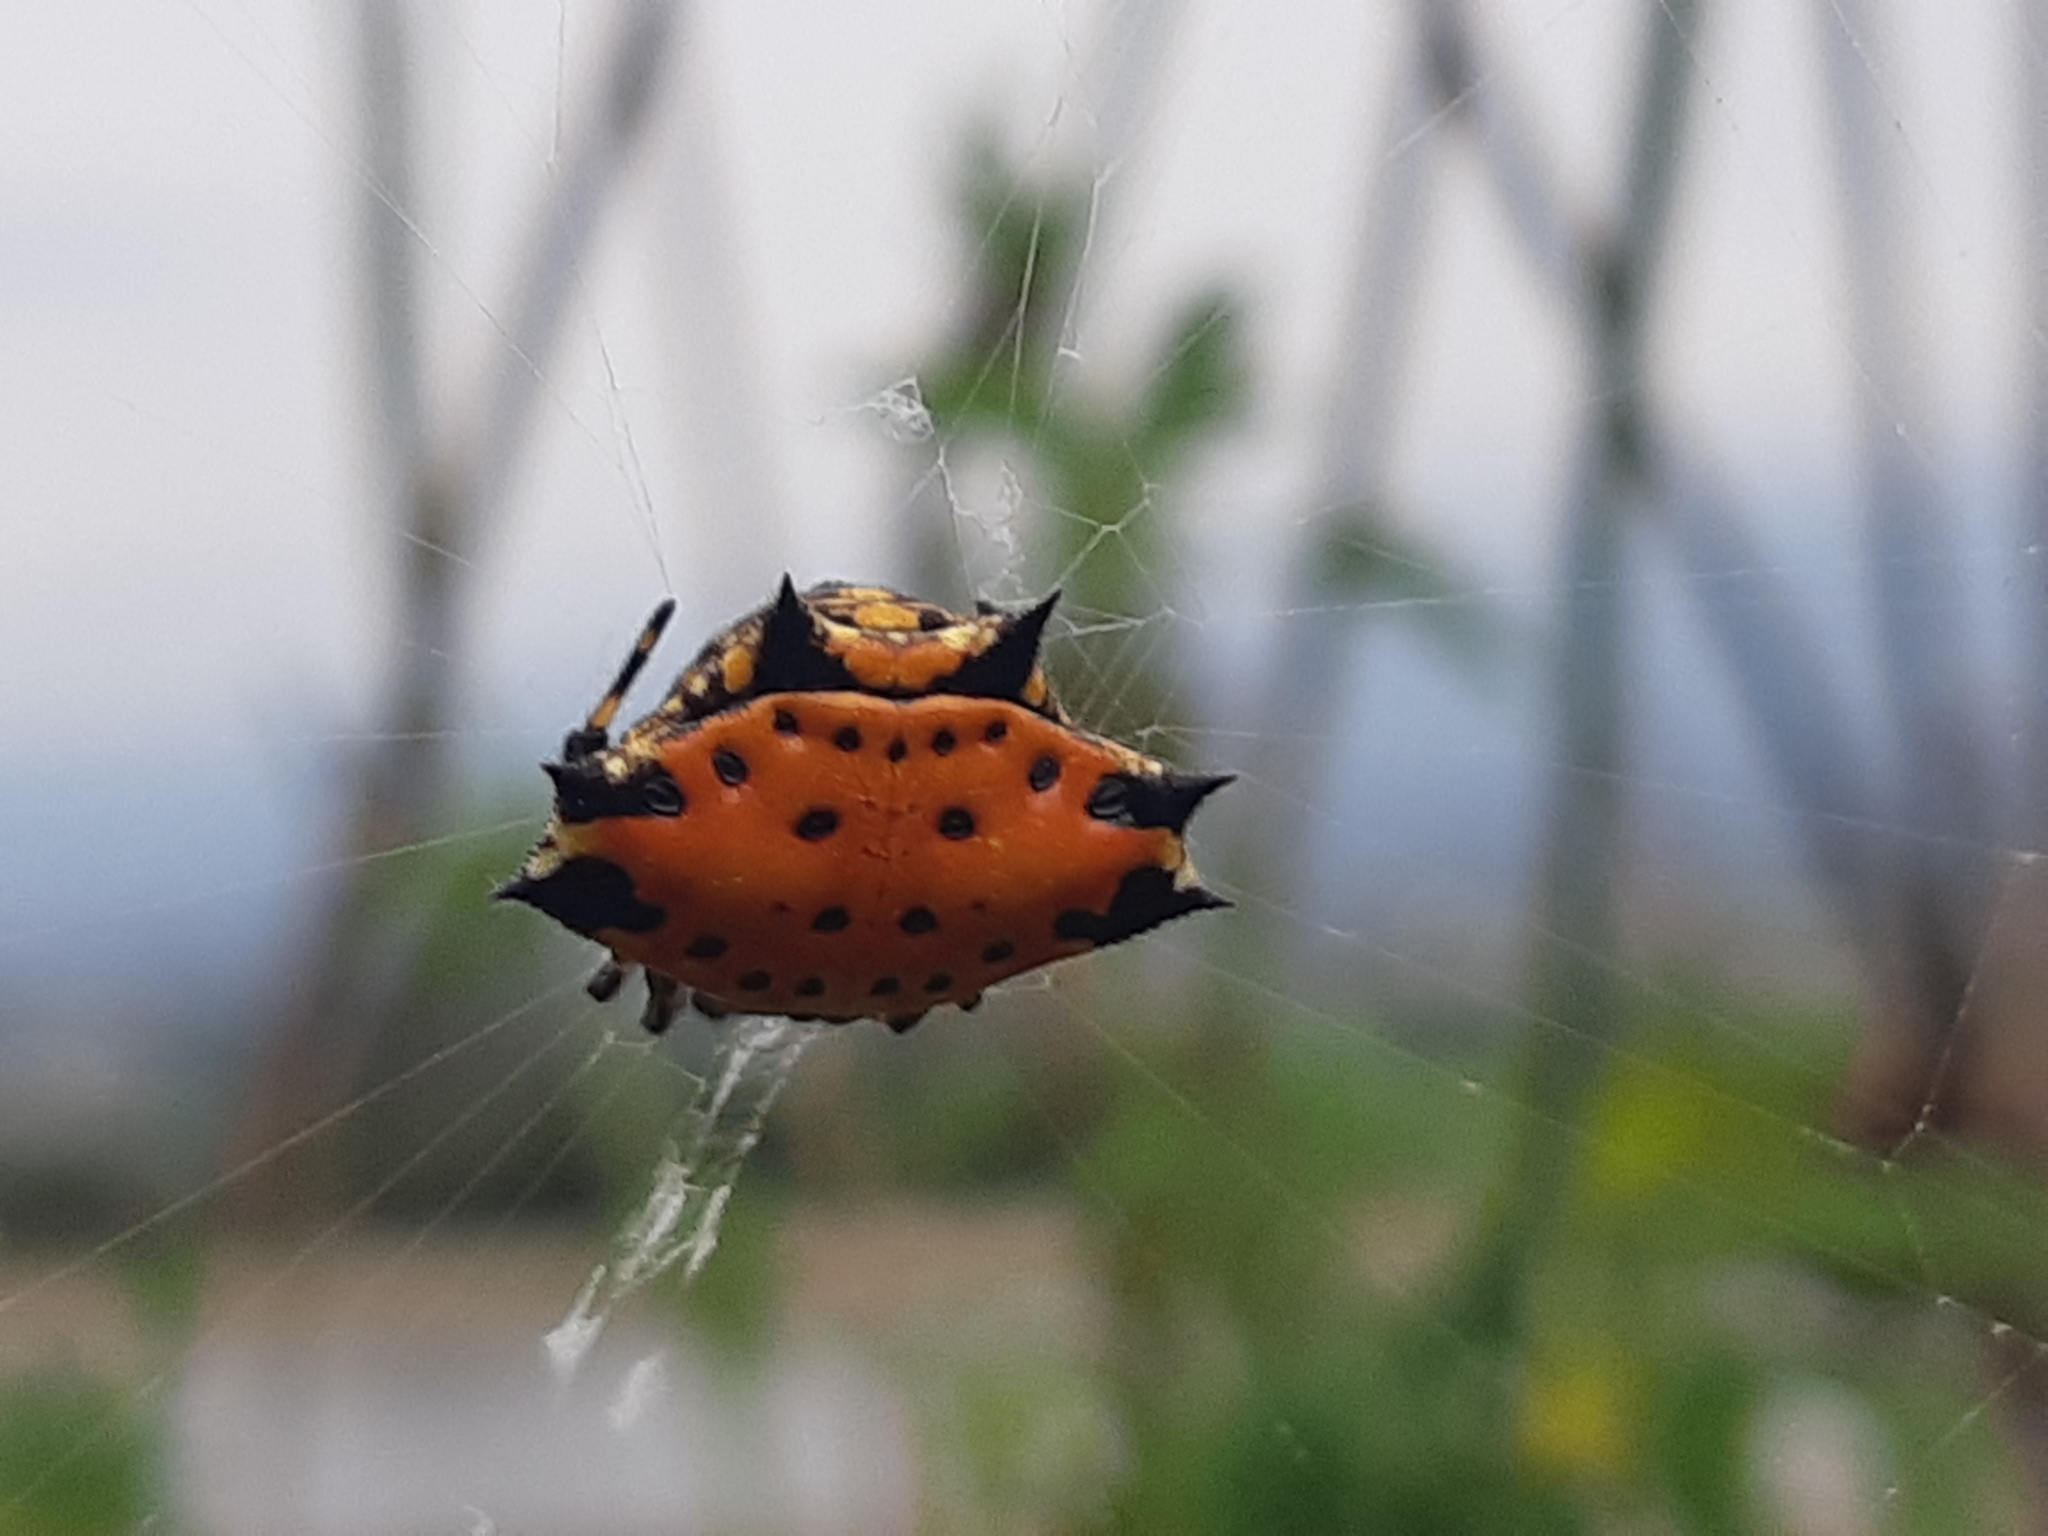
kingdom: Animalia
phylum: Arthropoda
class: Arachnida
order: Araneae
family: Araneidae
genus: Gasteracantha
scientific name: Gasteracantha cancriformis
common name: Orb weavers
